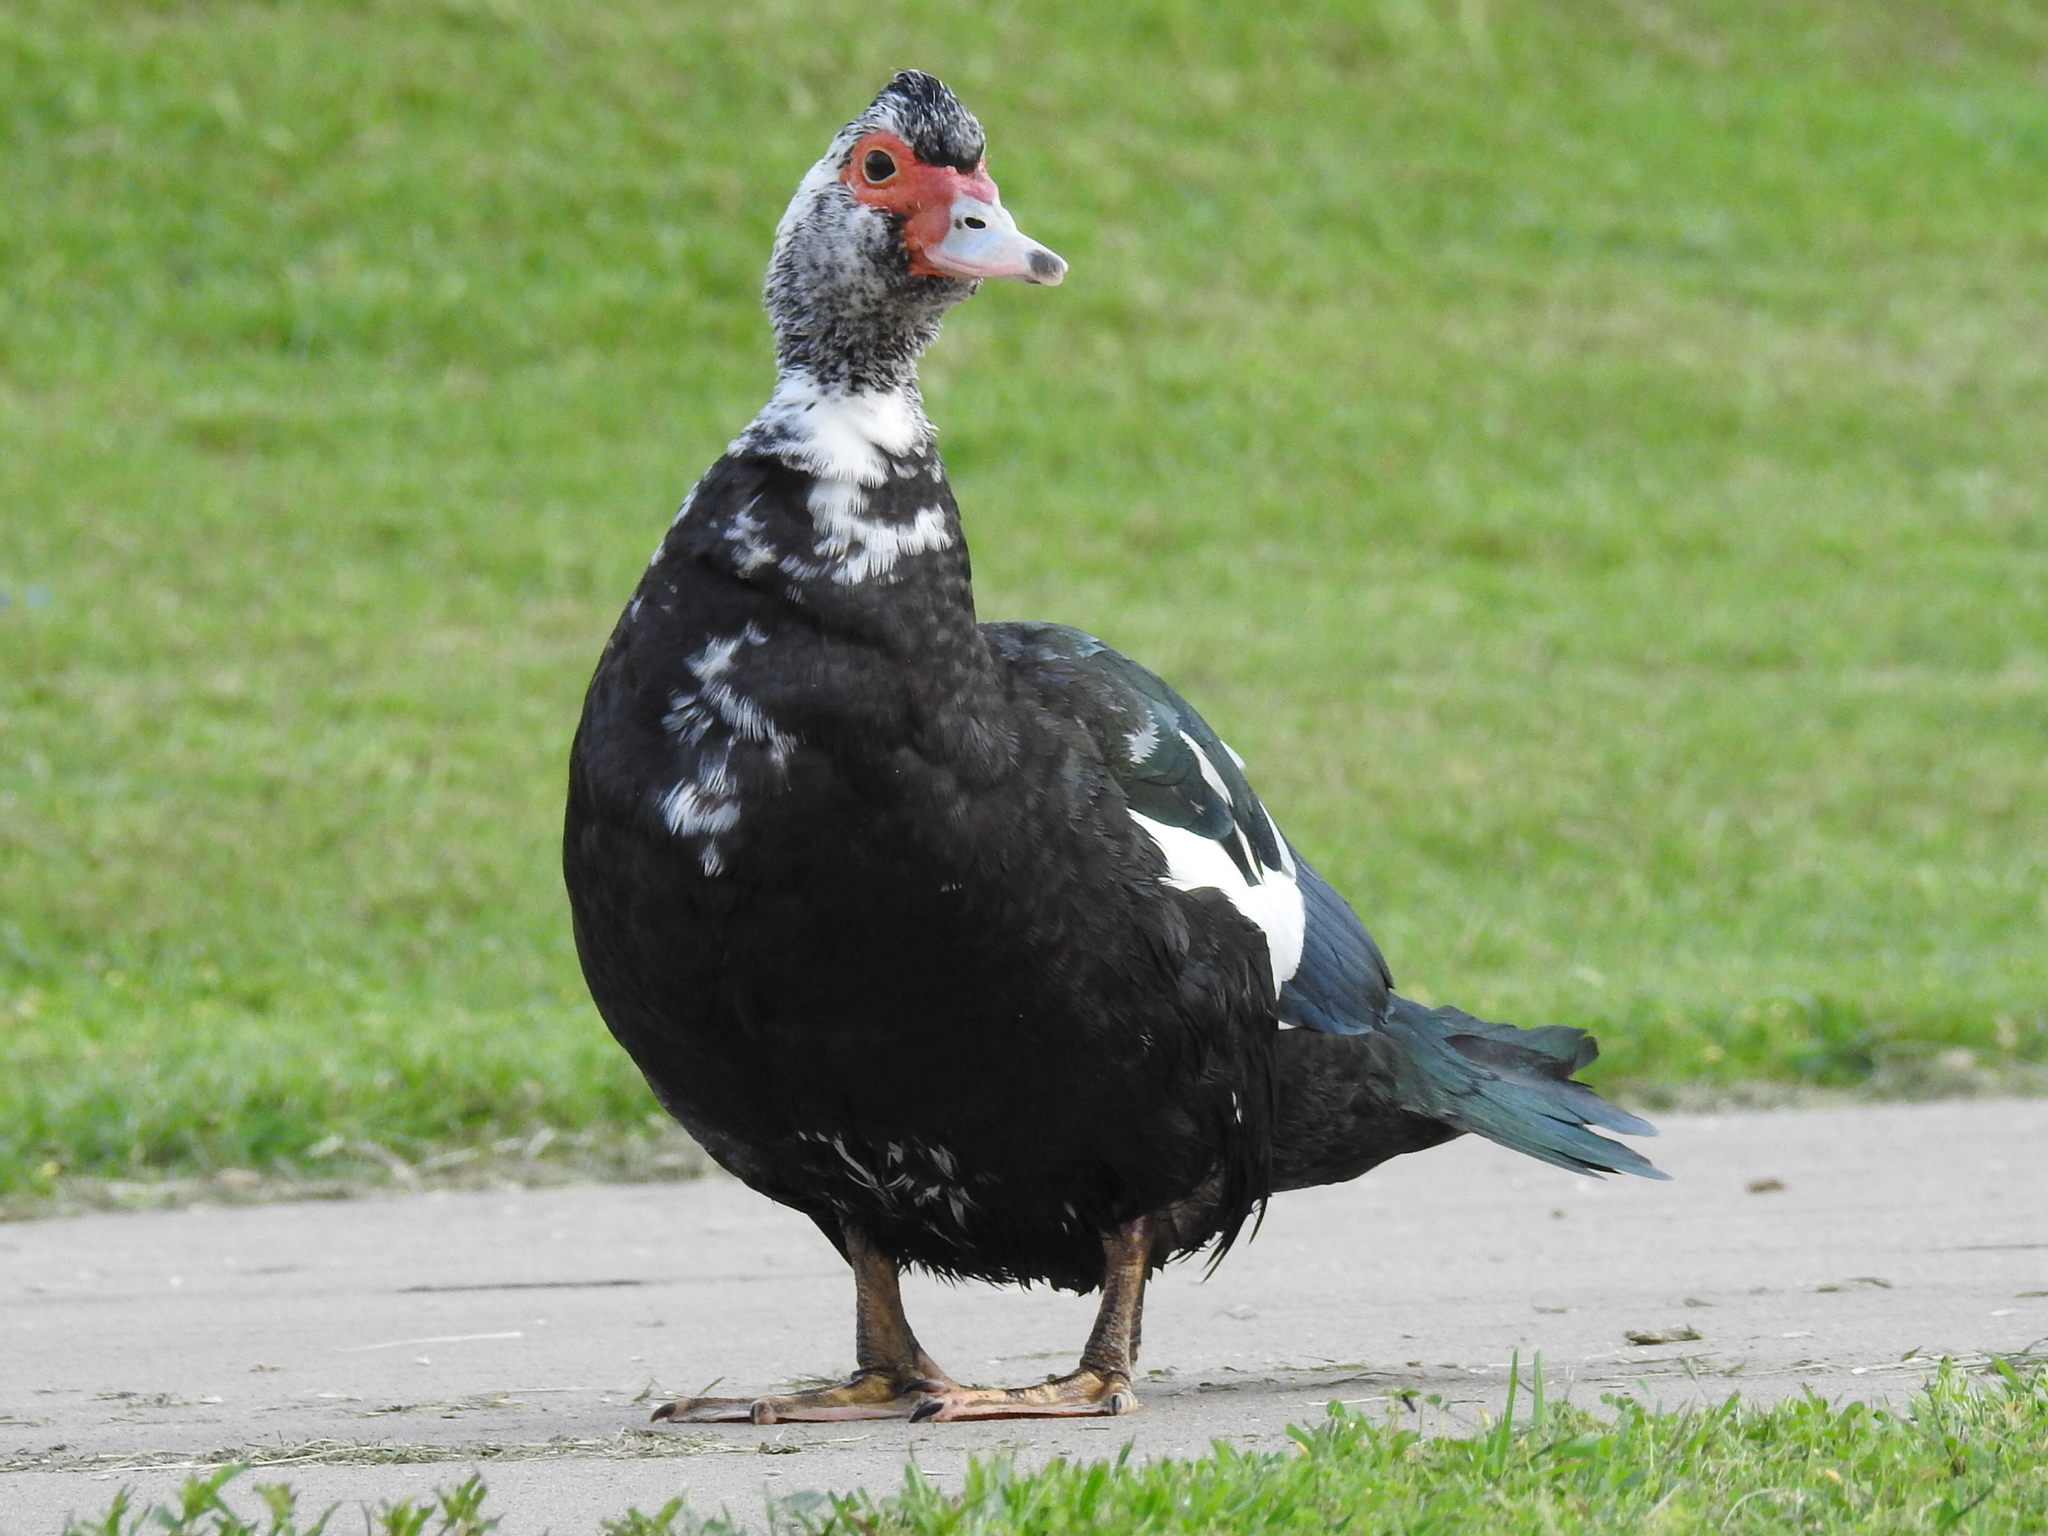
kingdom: Animalia
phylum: Chordata
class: Aves
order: Anseriformes
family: Anatidae
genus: Cairina
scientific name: Cairina moschata
